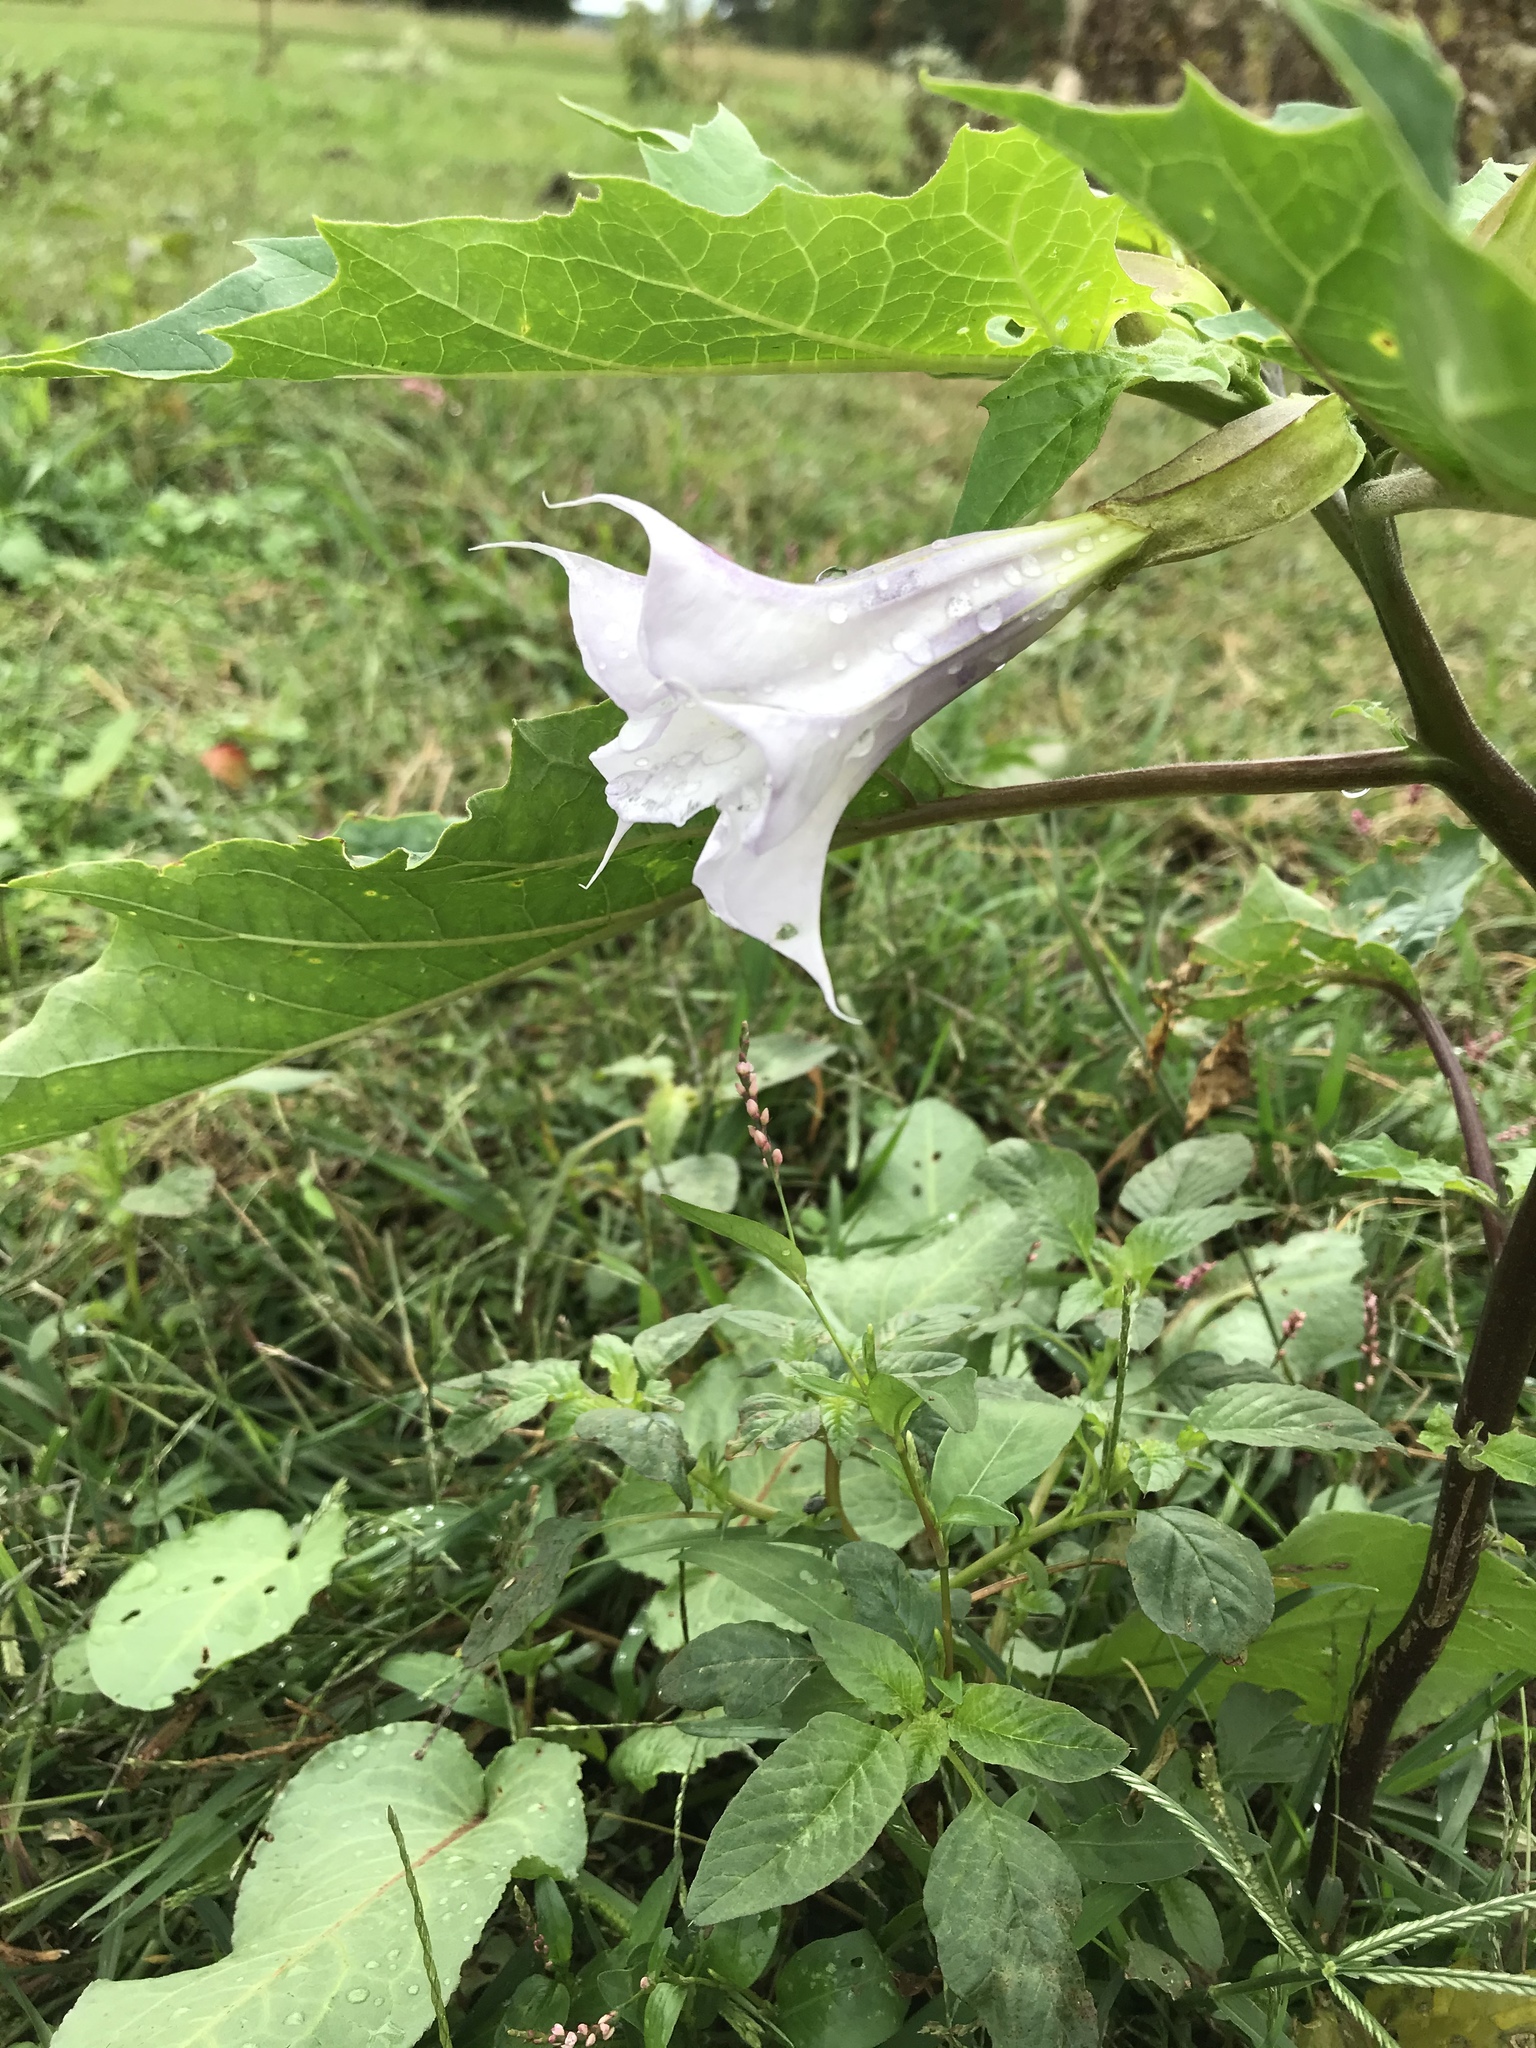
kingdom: Plantae
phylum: Tracheophyta
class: Magnoliopsida
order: Solanales
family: Solanaceae
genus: Datura
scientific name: Datura stramonium
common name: Thorn-apple
